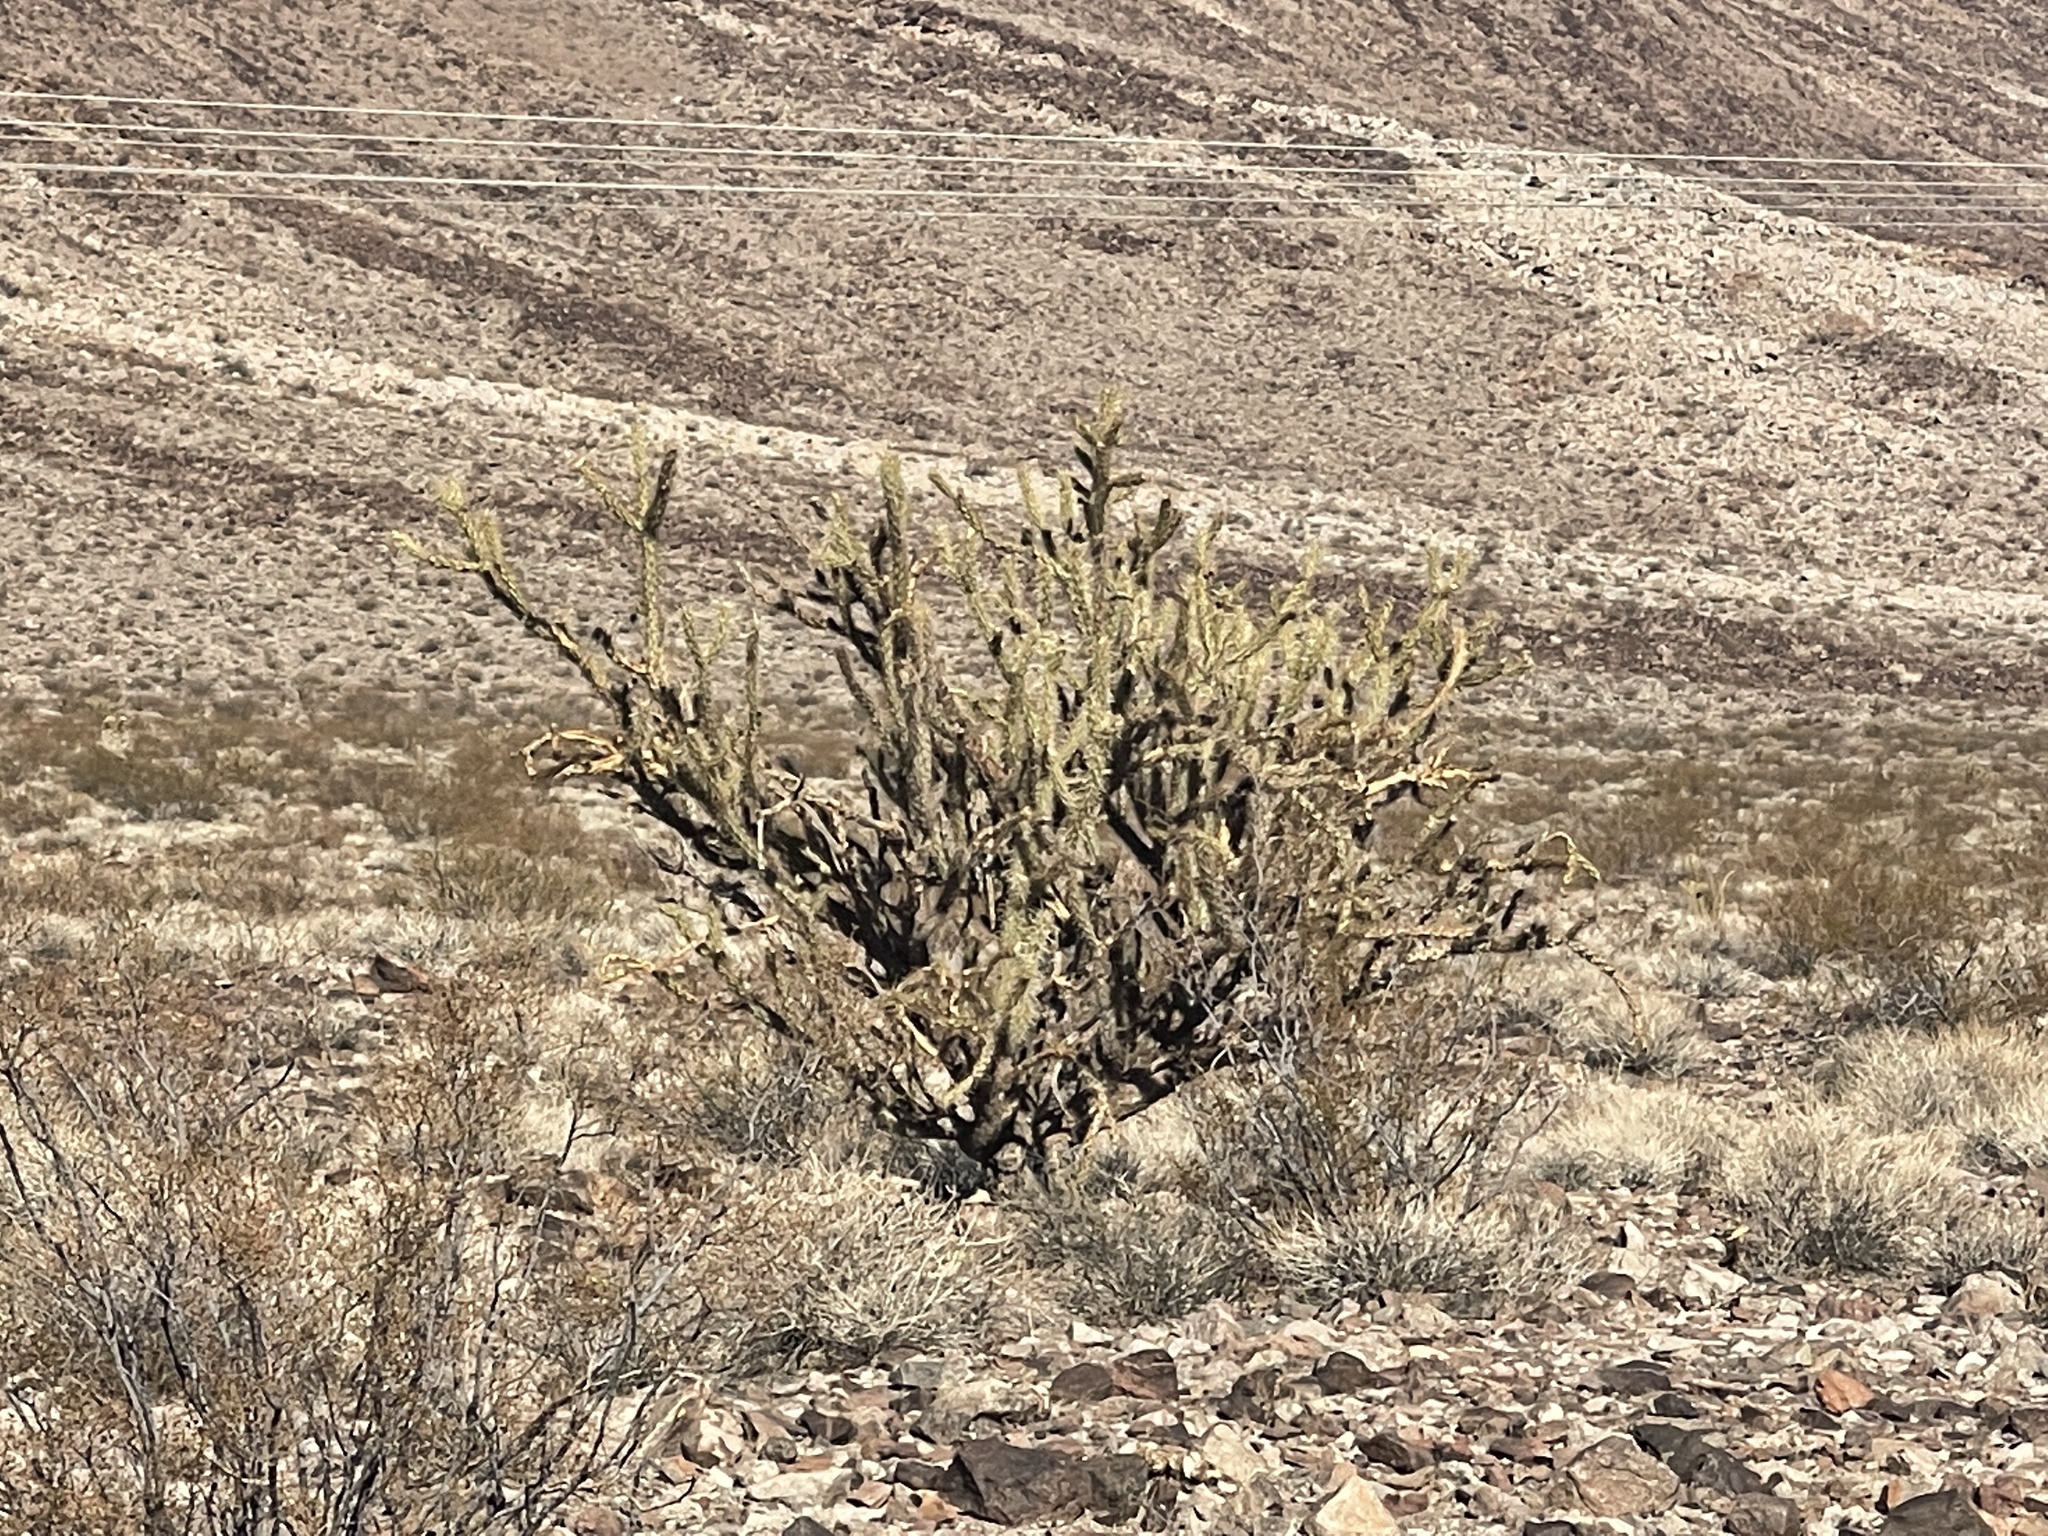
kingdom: Plantae
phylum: Tracheophyta
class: Magnoliopsida
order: Caryophyllales
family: Cactaceae
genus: Cylindropuntia
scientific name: Cylindropuntia acanthocarpa
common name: Buckhorn cholla
